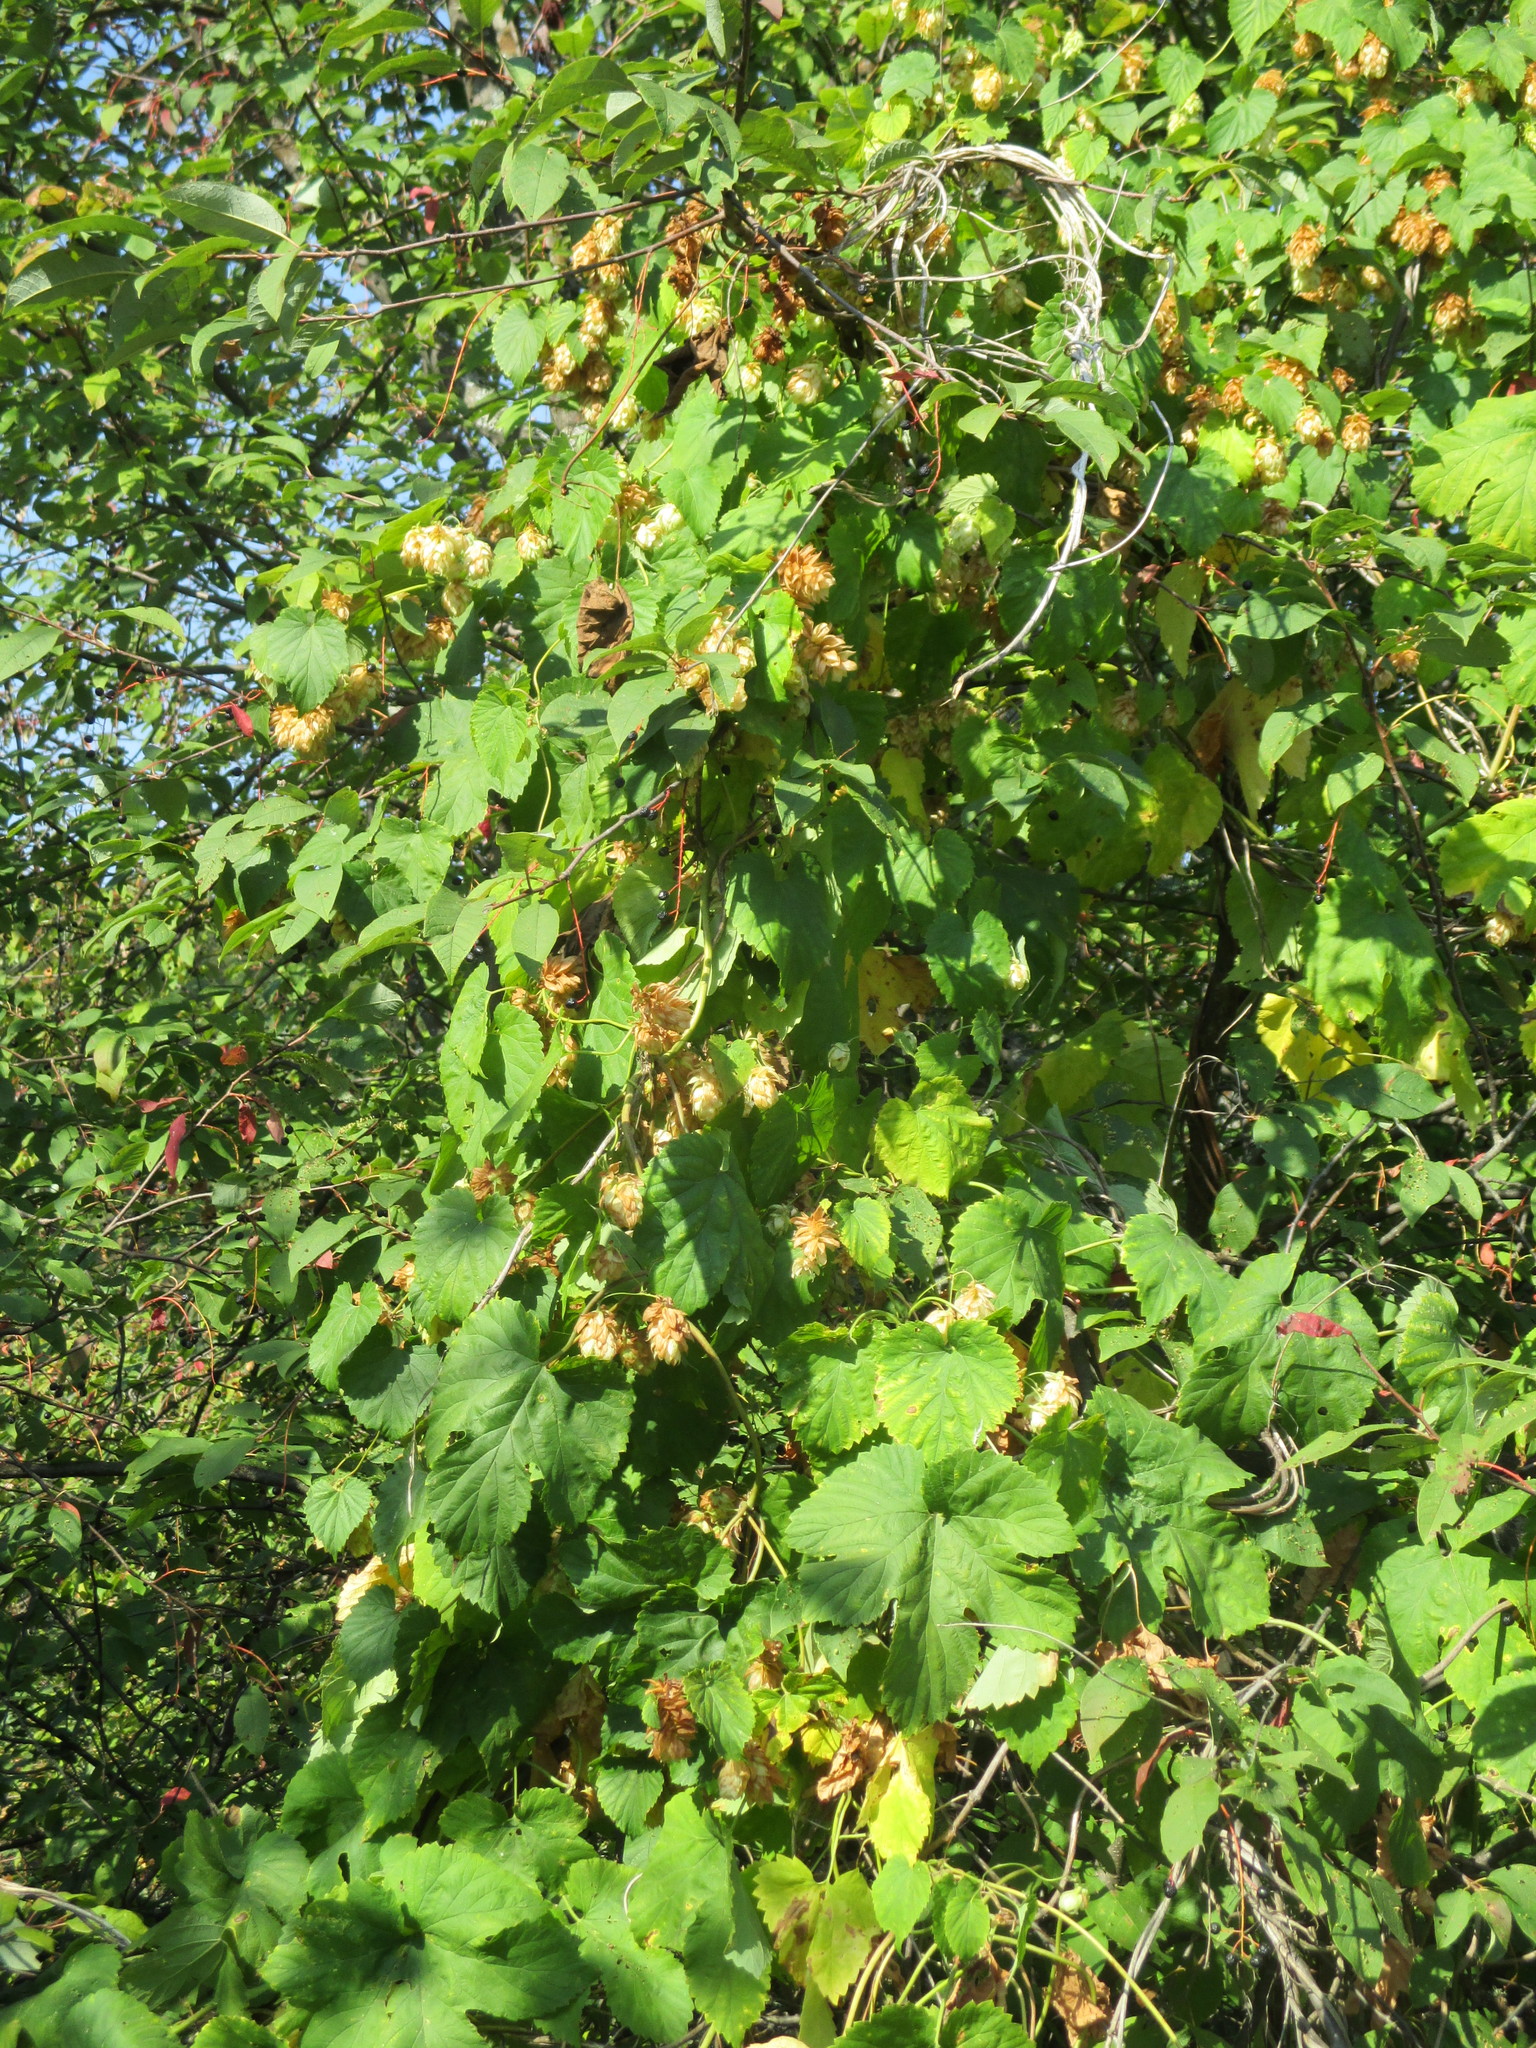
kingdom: Plantae
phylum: Tracheophyta
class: Magnoliopsida
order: Rosales
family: Cannabaceae
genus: Humulus
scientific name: Humulus lupulus
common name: Hop
